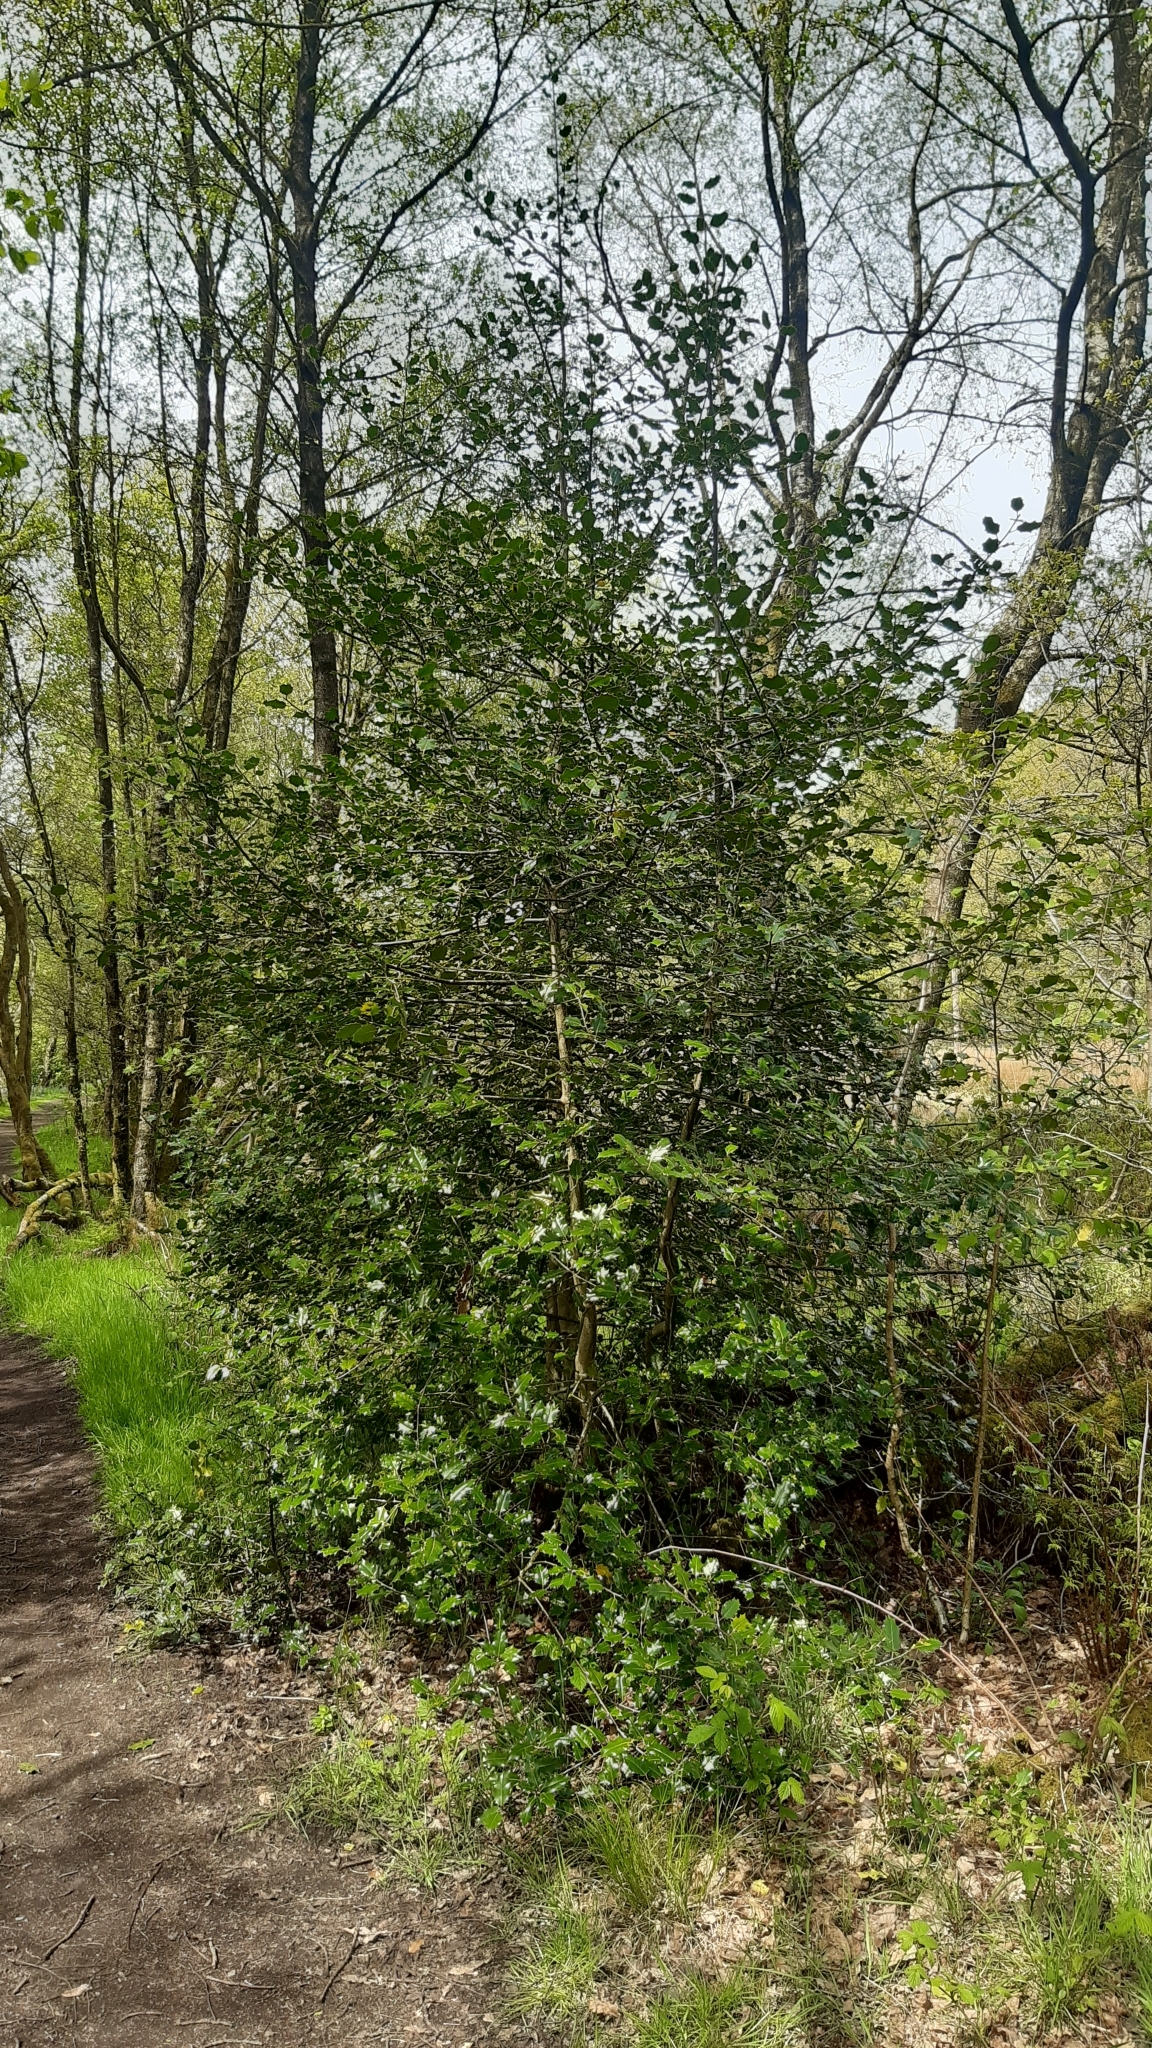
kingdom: Plantae
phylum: Tracheophyta
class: Magnoliopsida
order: Aquifoliales
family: Aquifoliaceae
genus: Ilex
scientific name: Ilex aquifolium
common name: English holly
